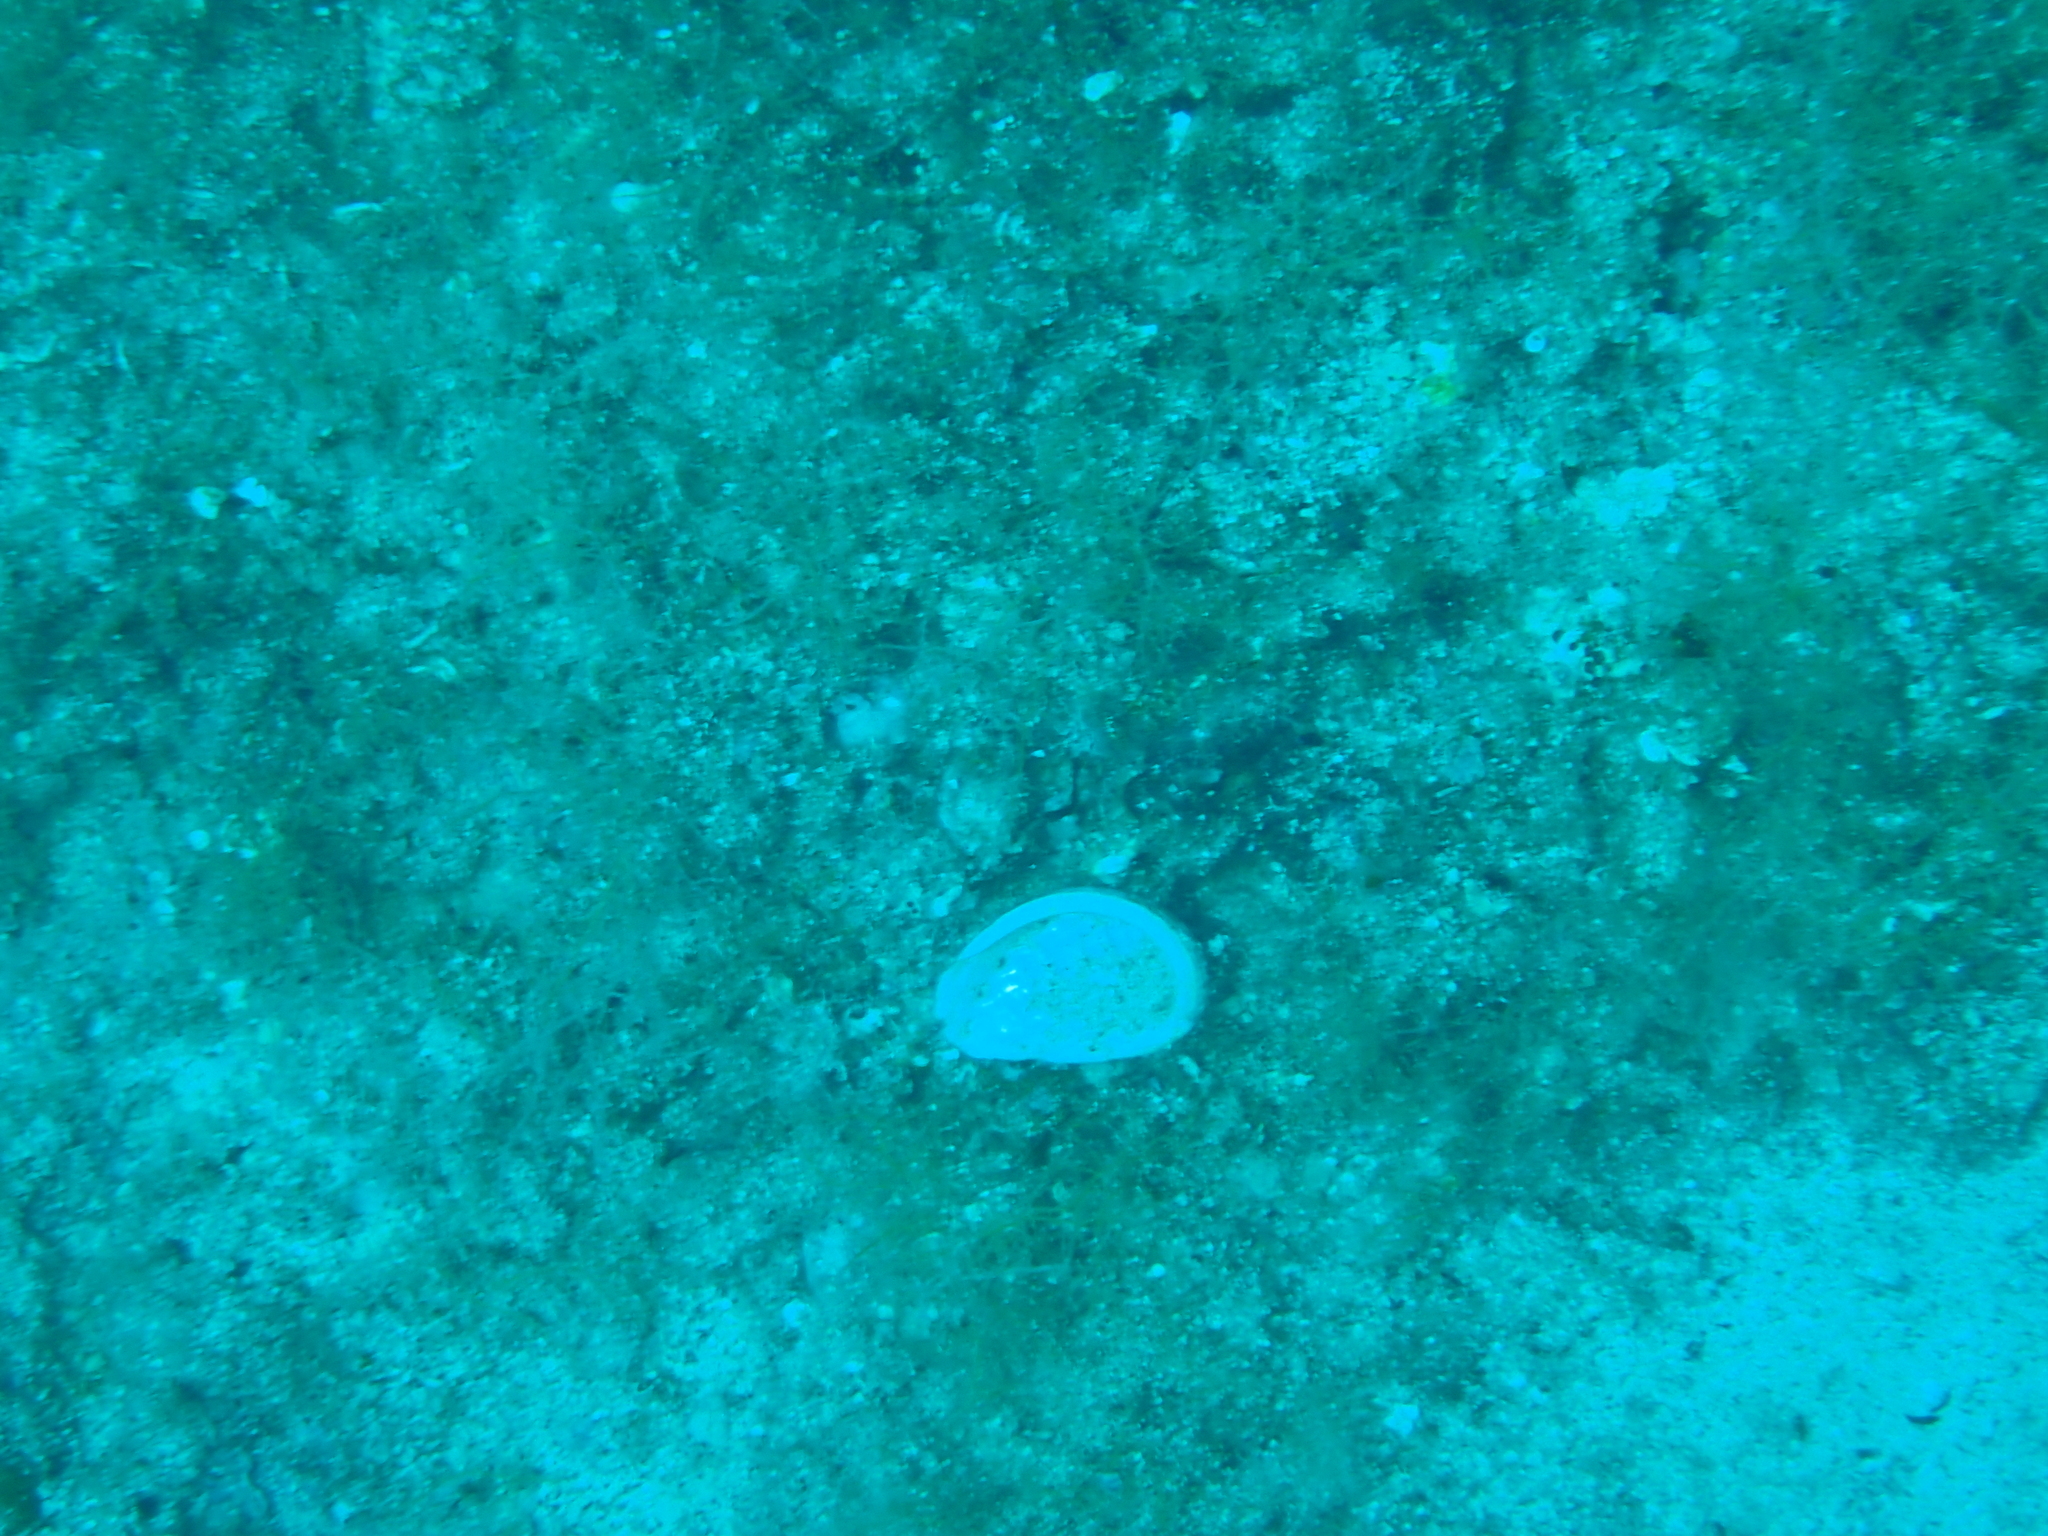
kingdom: Animalia
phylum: Mollusca
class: Gastropoda
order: Lepetellida
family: Haliotidae
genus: Haliotis
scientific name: Haliotis tuberculata
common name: Green ormer
